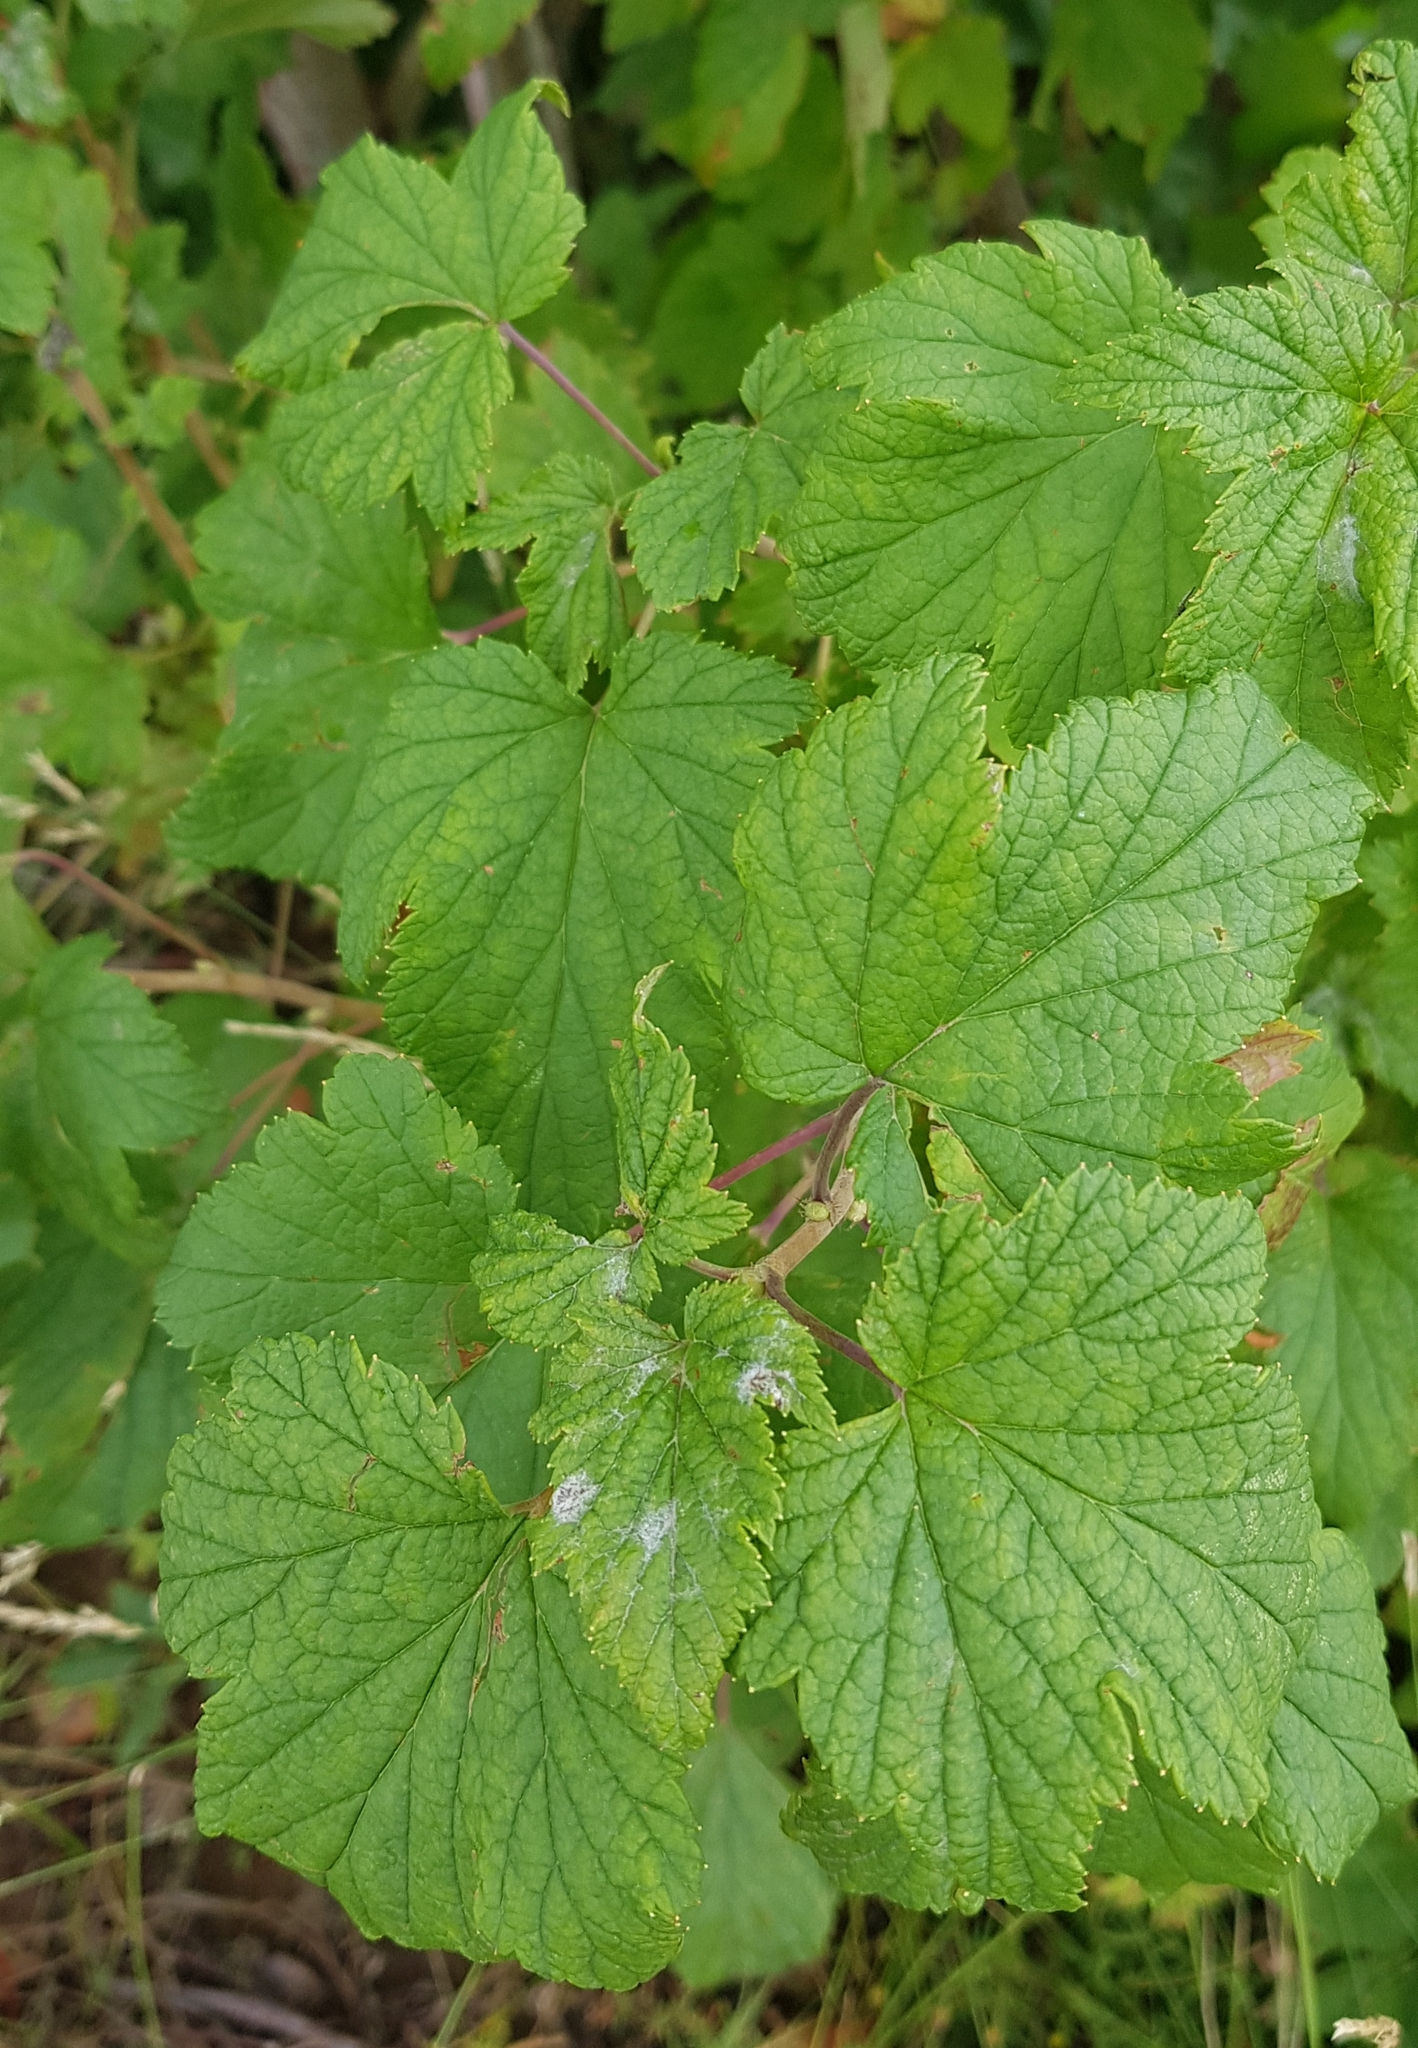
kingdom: Plantae
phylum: Tracheophyta
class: Magnoliopsida
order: Saxifragales
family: Grossulariaceae
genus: Ribes
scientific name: Ribes nigrum
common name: Black currant
